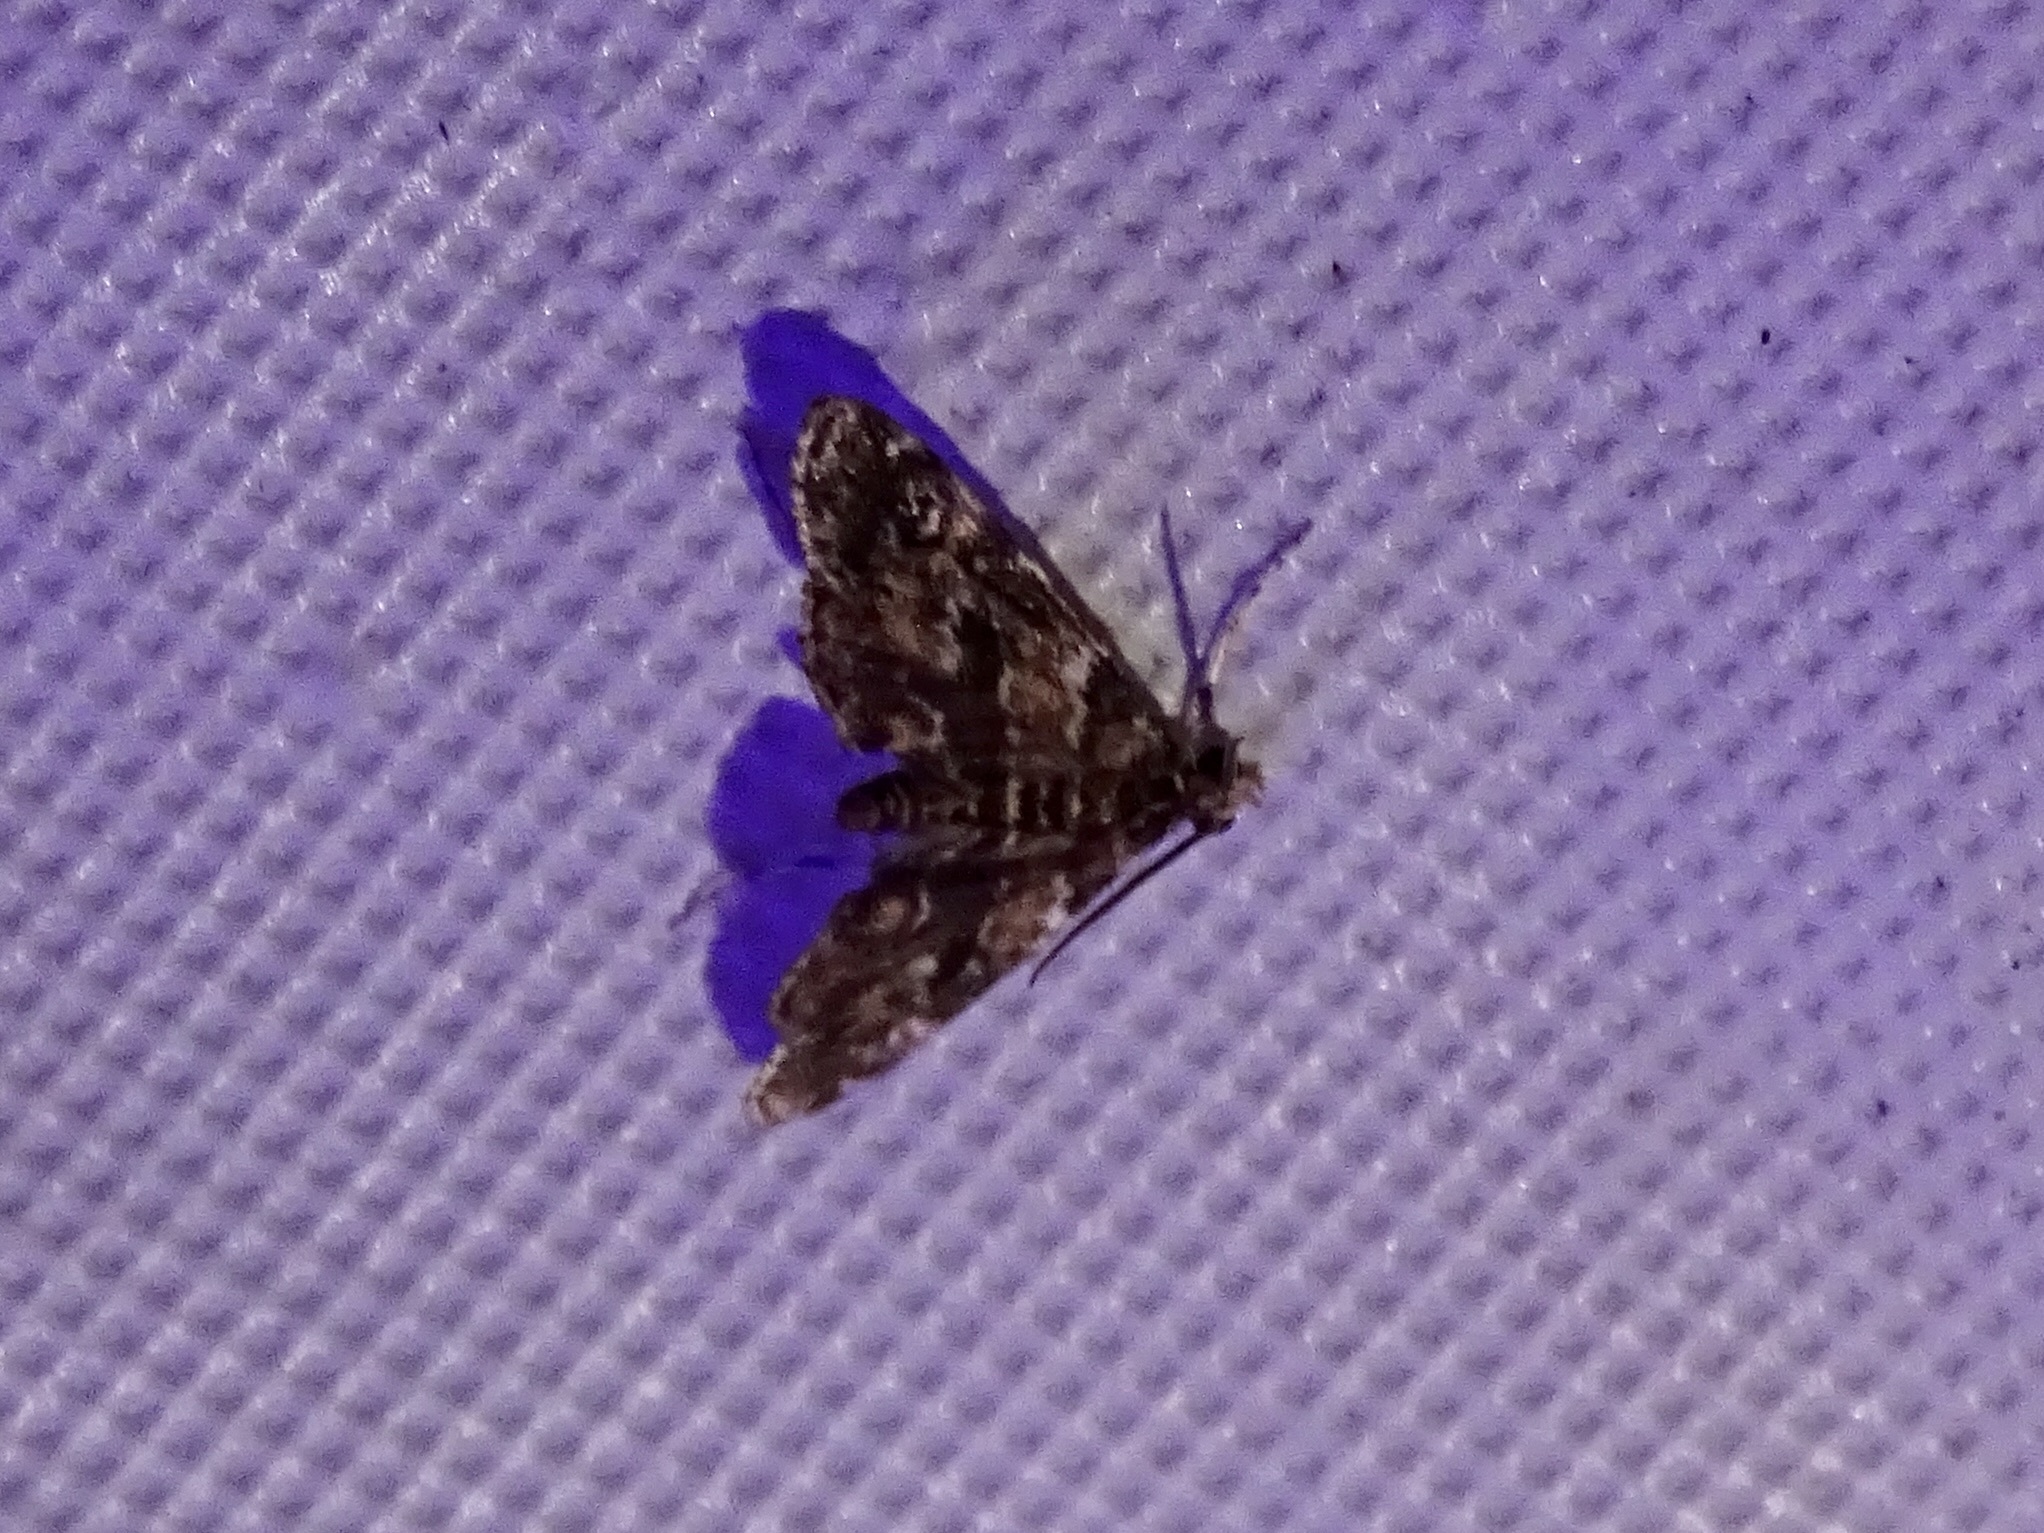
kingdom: Animalia
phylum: Arthropoda
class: Insecta
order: Lepidoptera
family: Crambidae
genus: Elophila
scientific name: Elophila obliteralis
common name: Waterlily leafcutter moth
